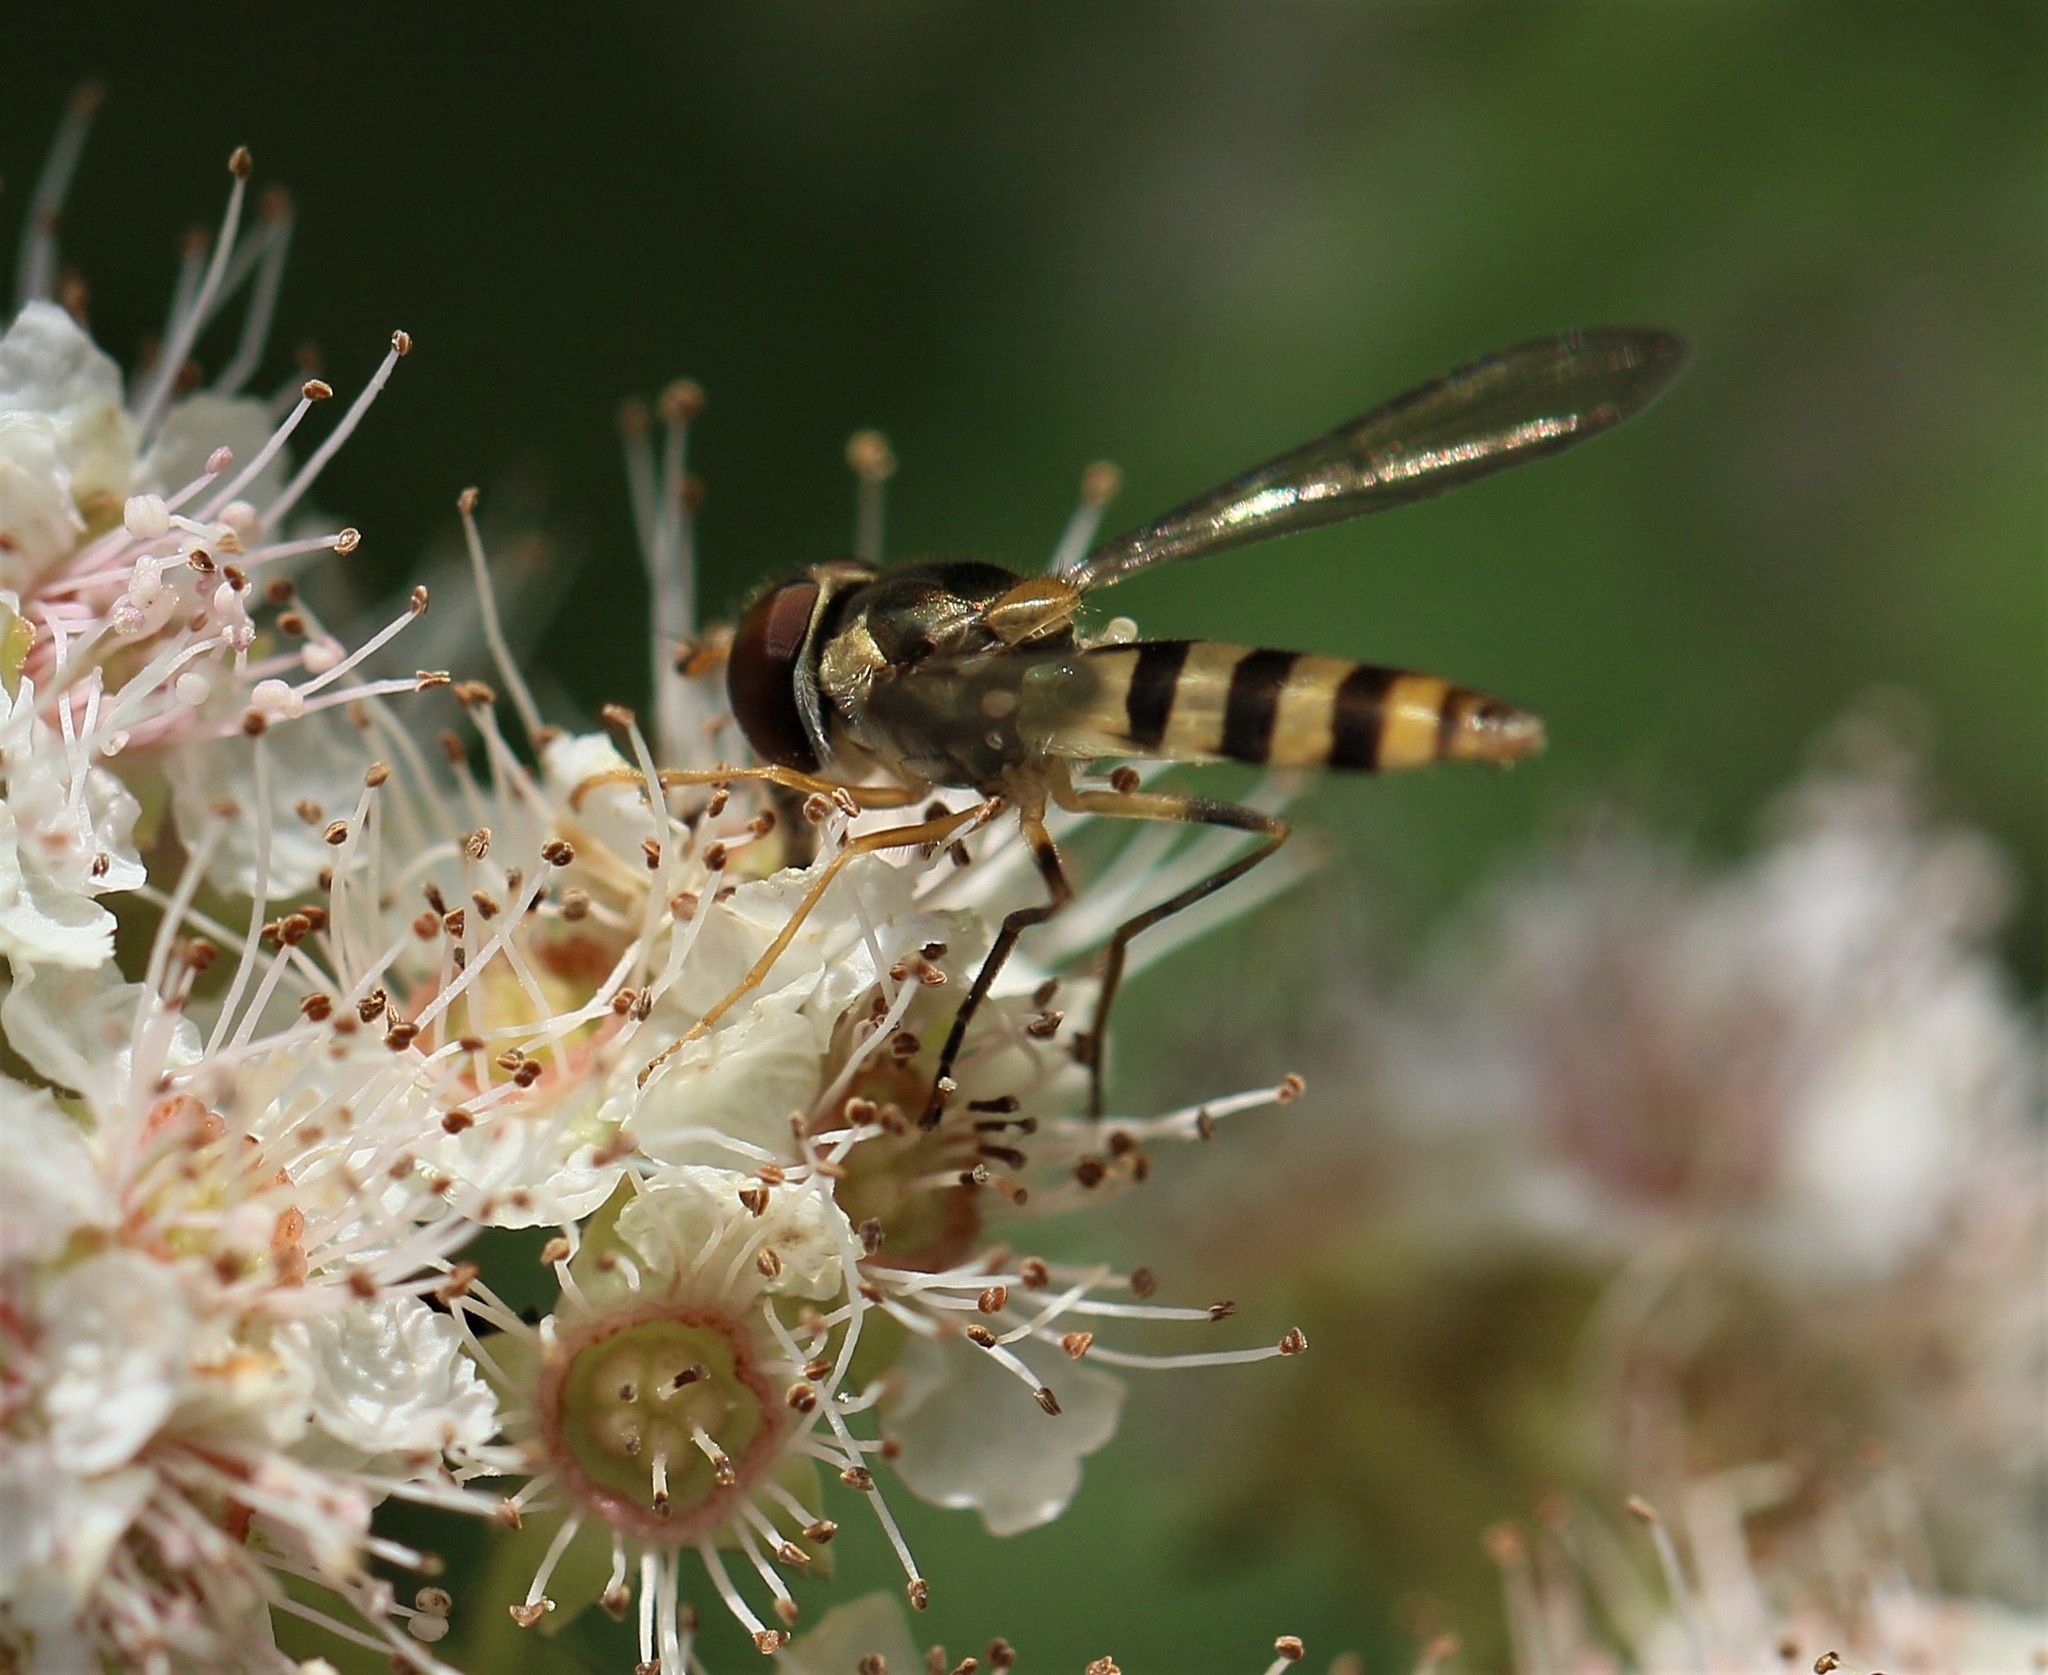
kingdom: Animalia
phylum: Arthropoda
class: Insecta
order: Diptera
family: Syrphidae
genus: Meliscaeva
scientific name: Meliscaeva cinctella
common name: American thintail fly
